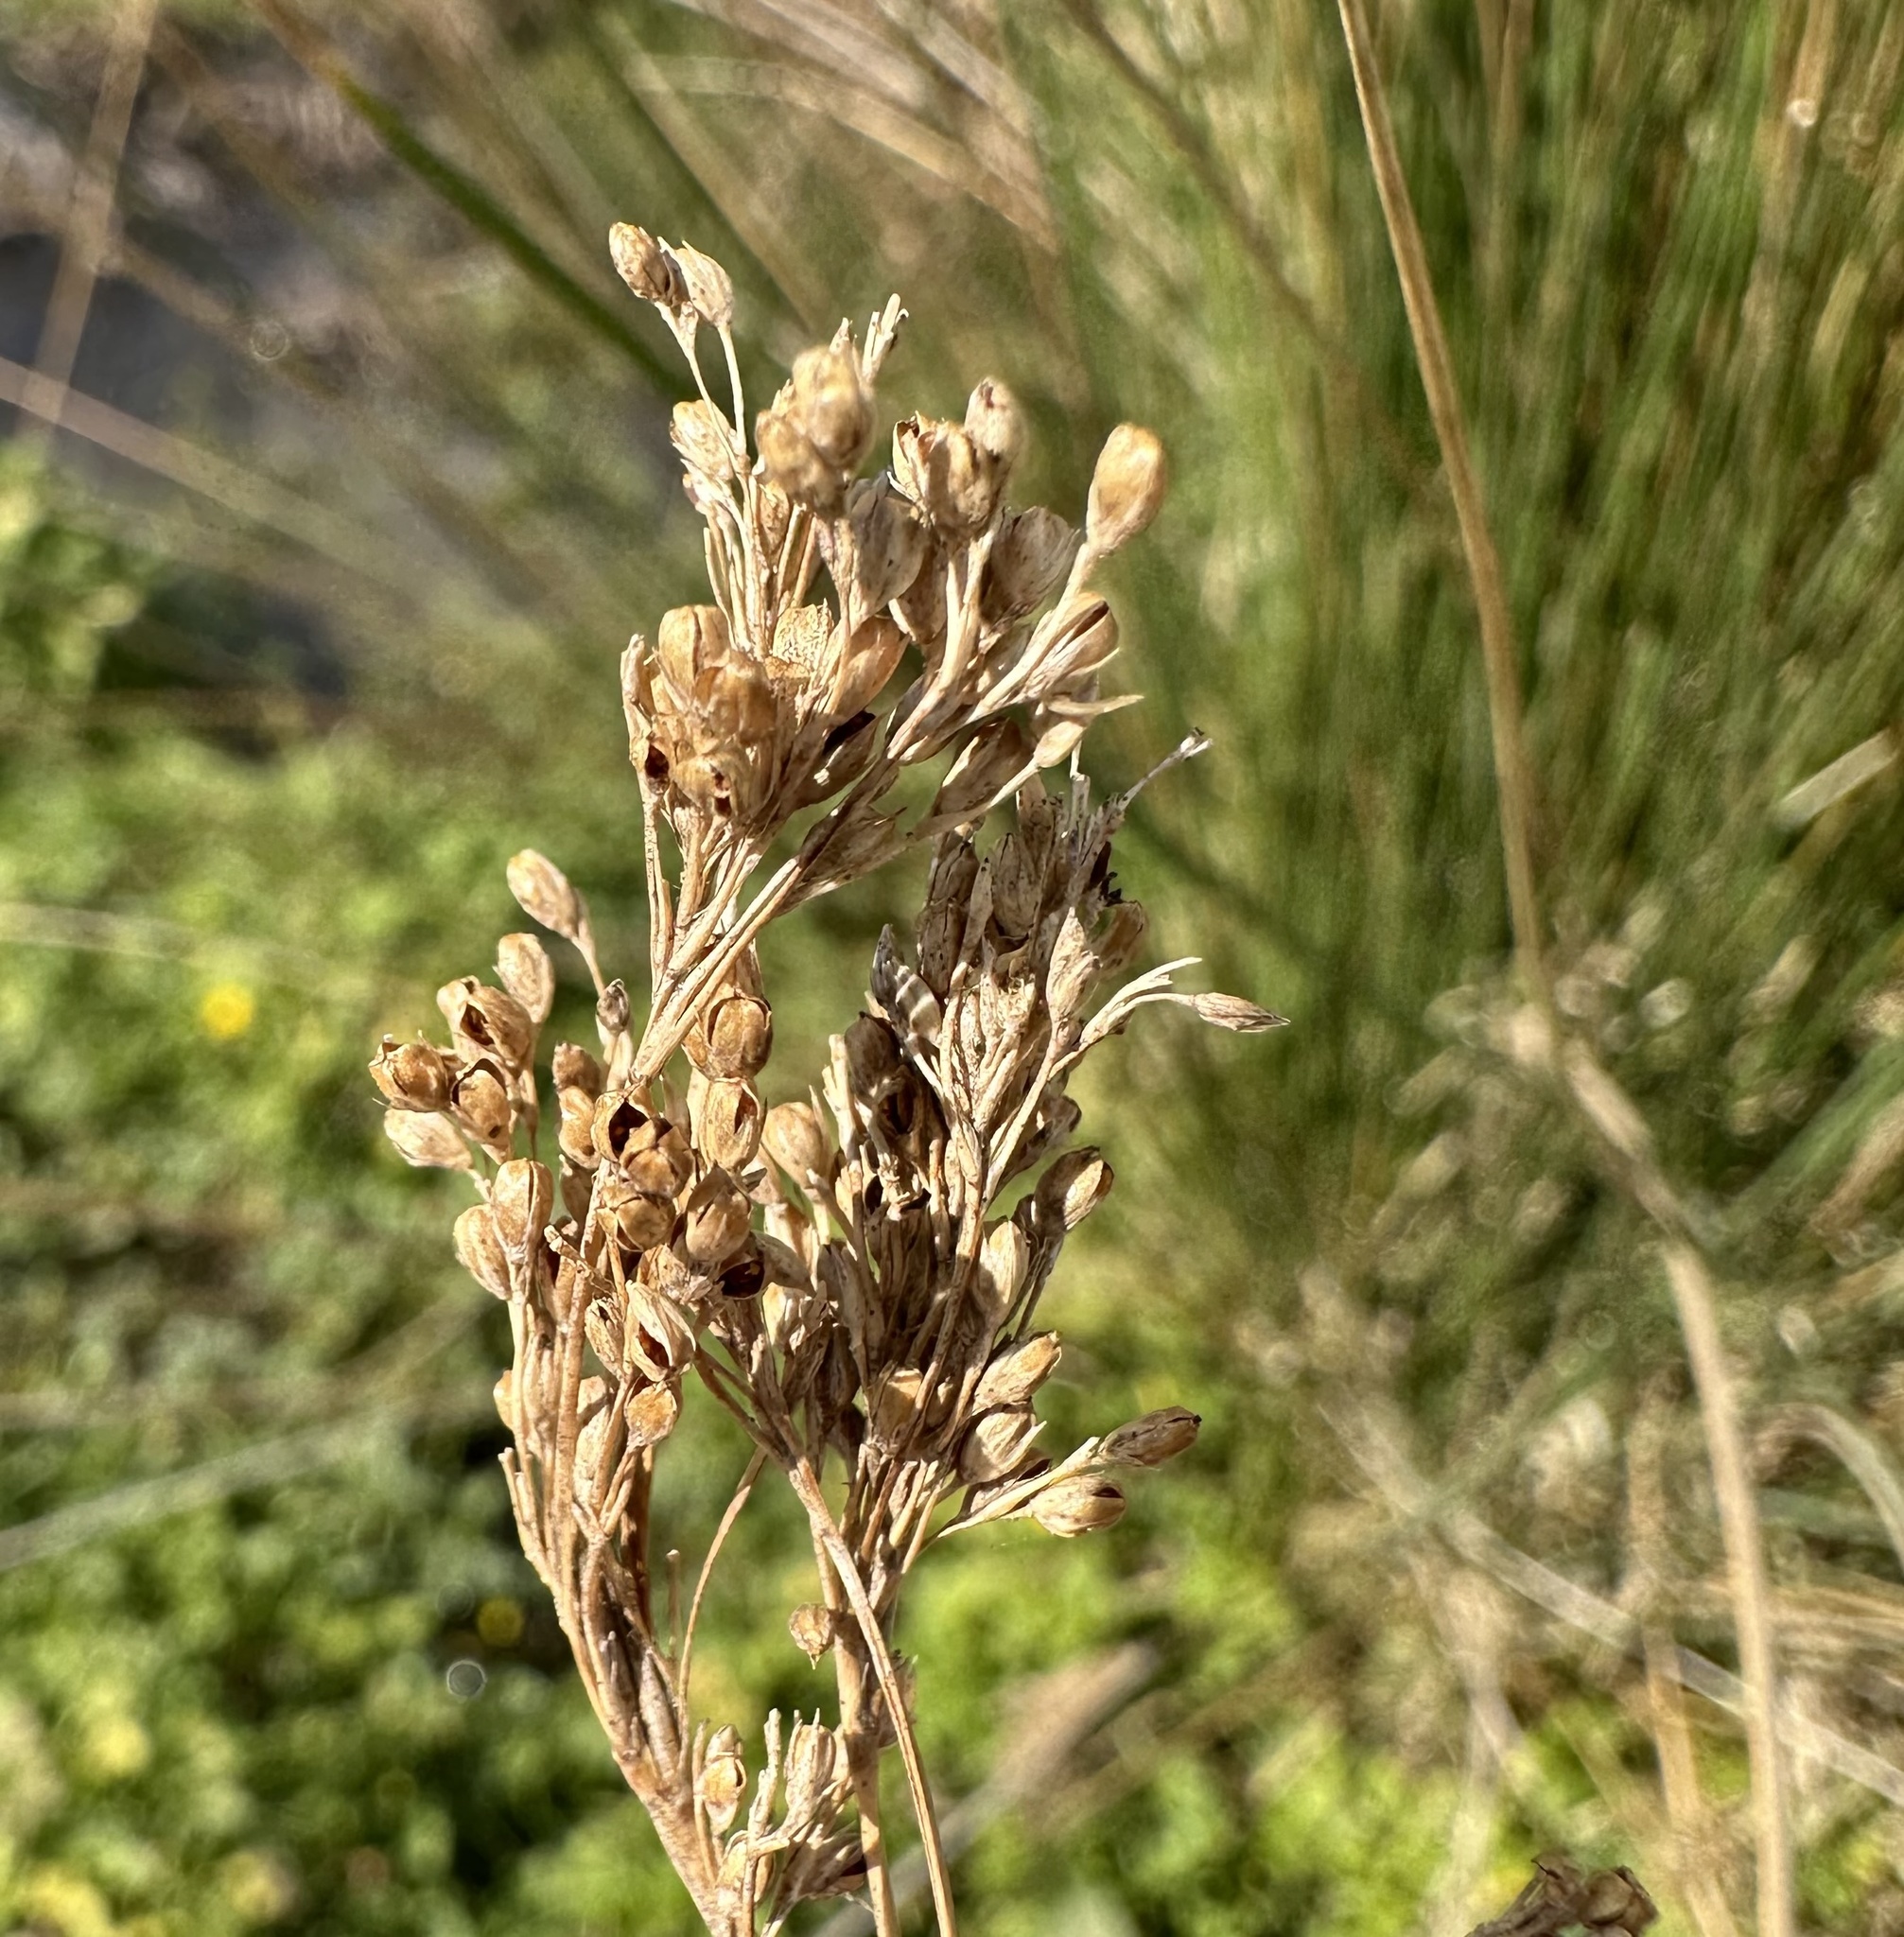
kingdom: Plantae
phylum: Tracheophyta
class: Liliopsida
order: Poales
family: Juncaceae
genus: Juncus
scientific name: Juncus sarophorus
